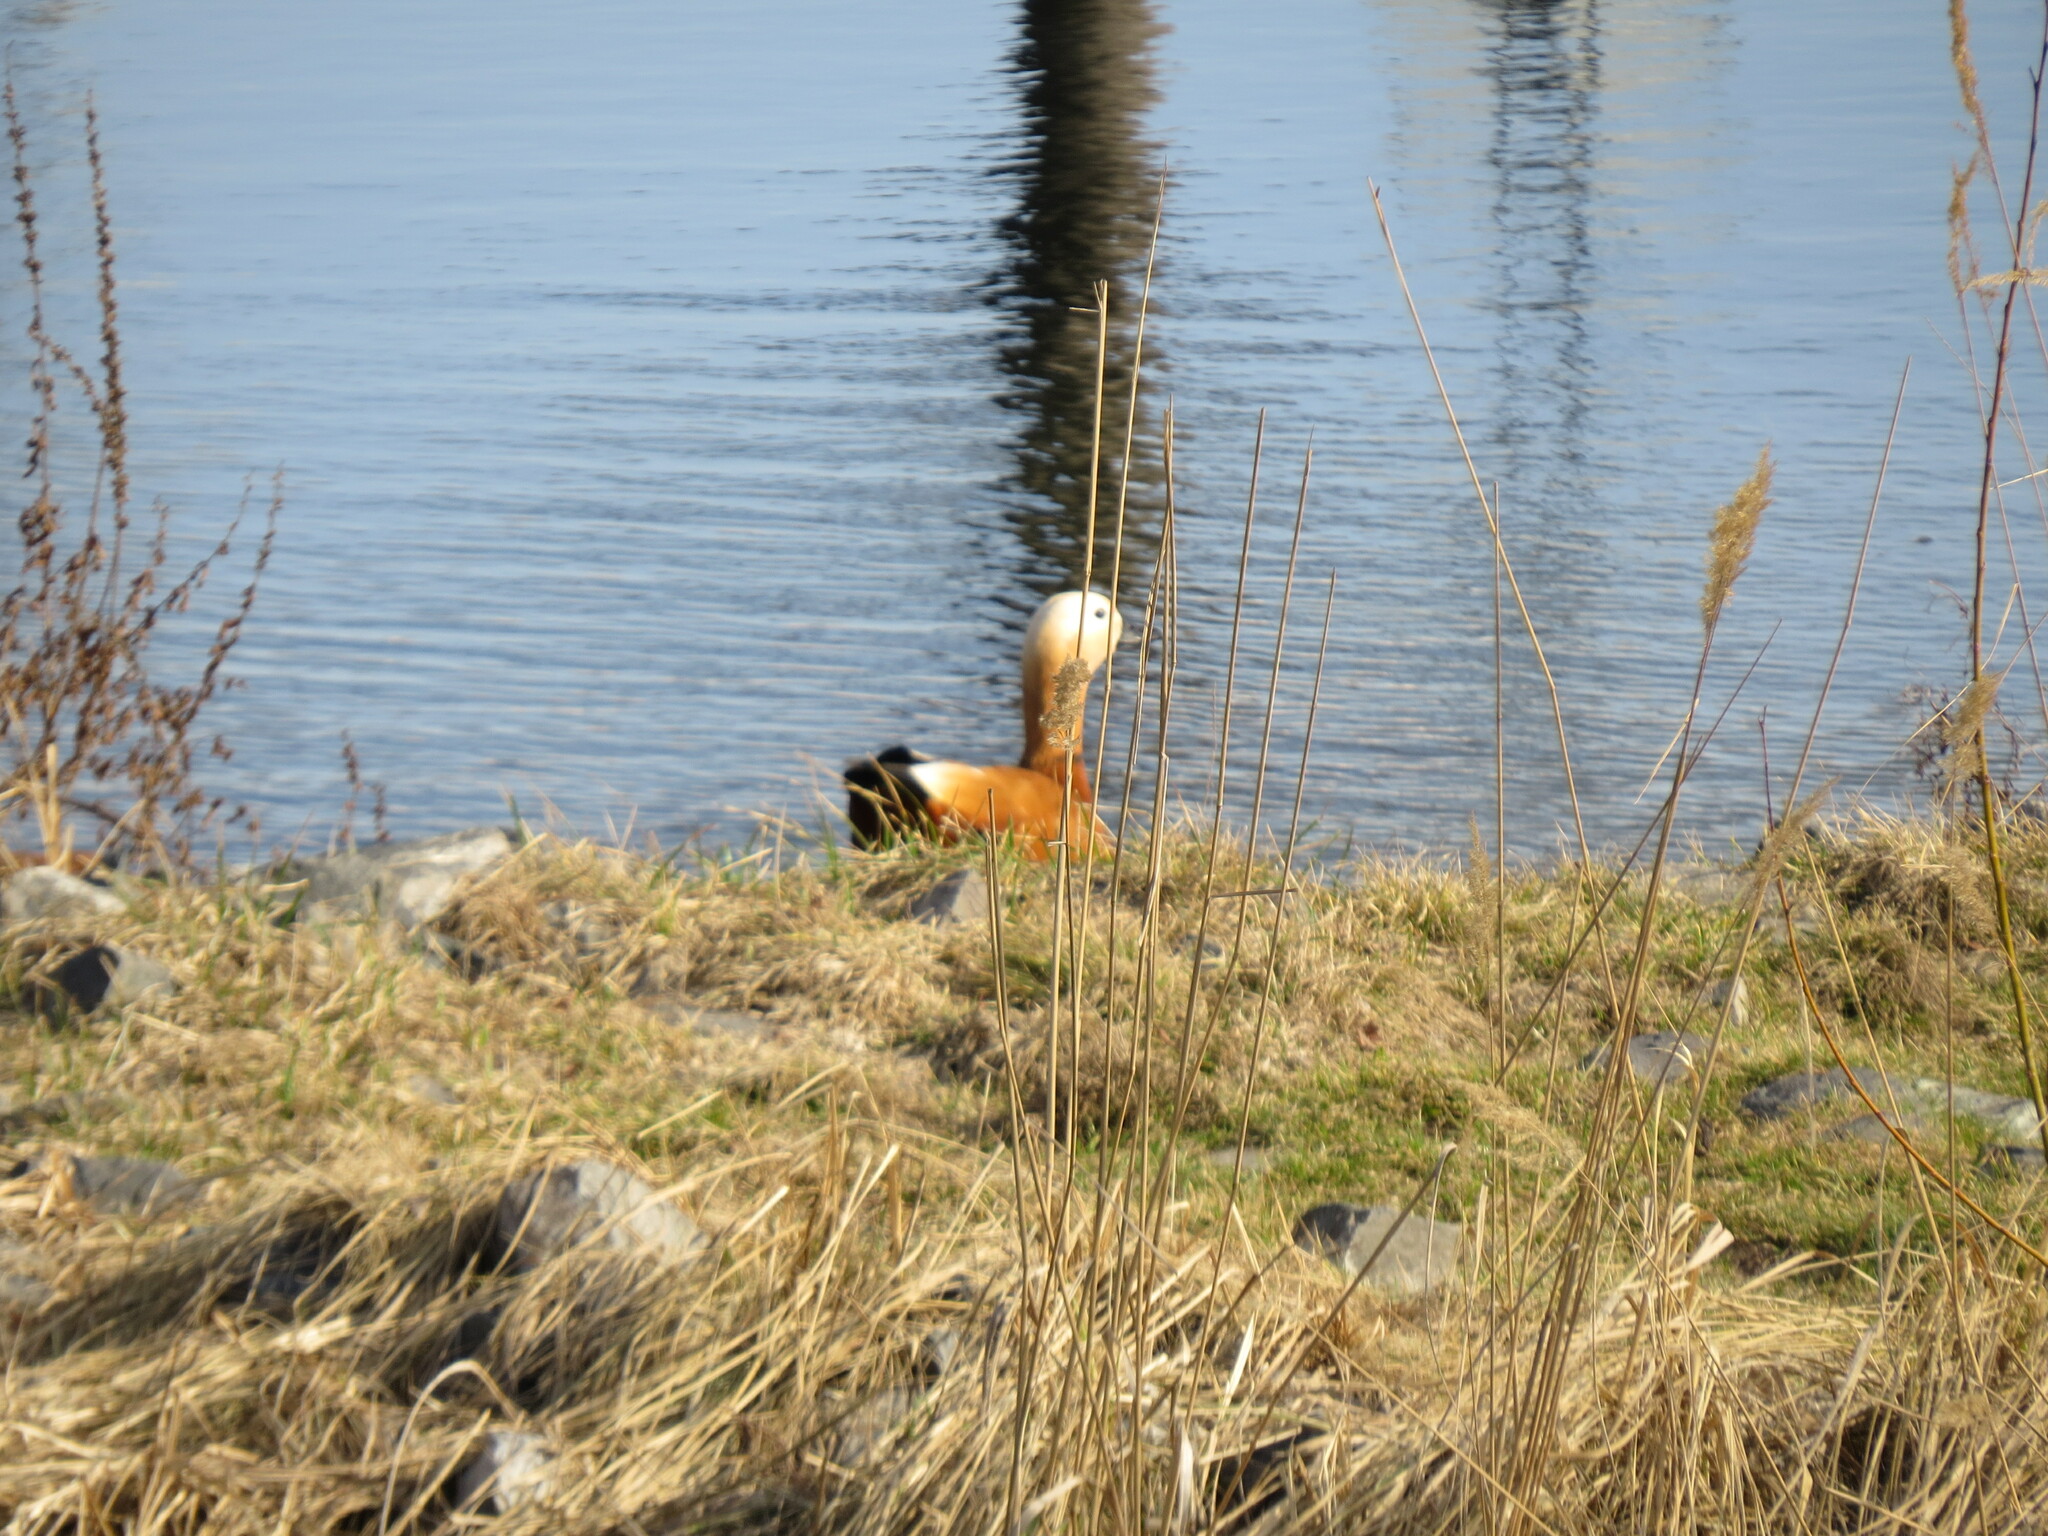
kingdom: Animalia
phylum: Chordata
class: Aves
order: Anseriformes
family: Anatidae
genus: Tadorna
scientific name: Tadorna ferruginea
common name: Ruddy shelduck
